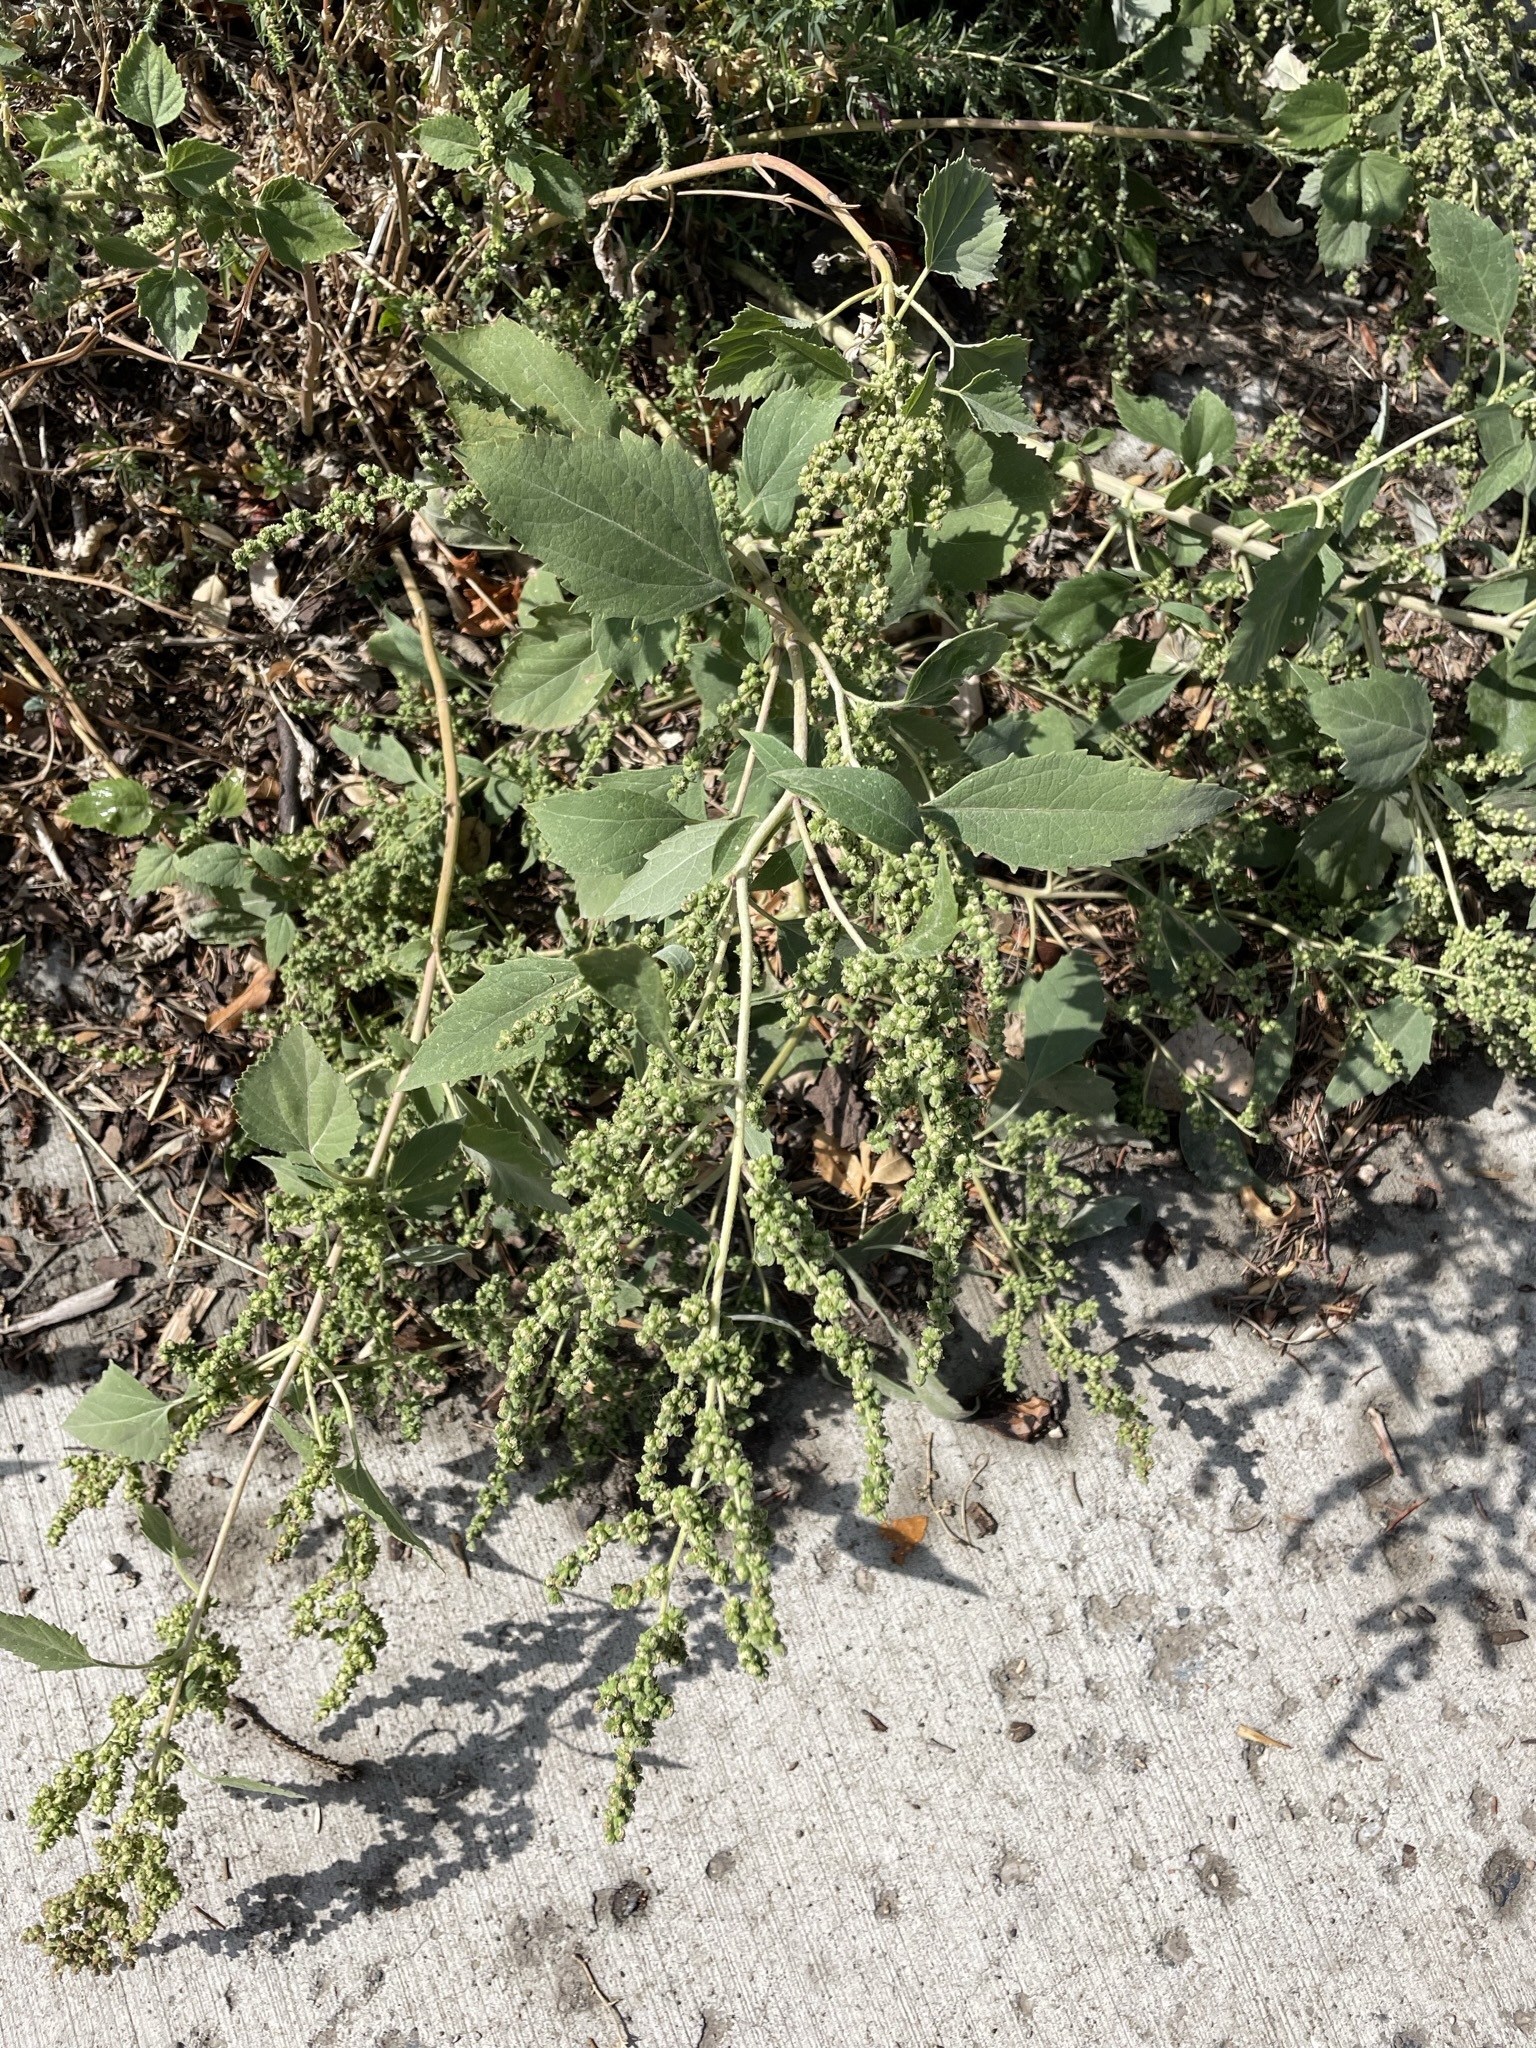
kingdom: Plantae
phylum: Tracheophyta
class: Magnoliopsida
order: Asterales
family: Asteraceae
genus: Cyclachaena
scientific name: Cyclachaena xanthiifolia
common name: Giant sumpweed
